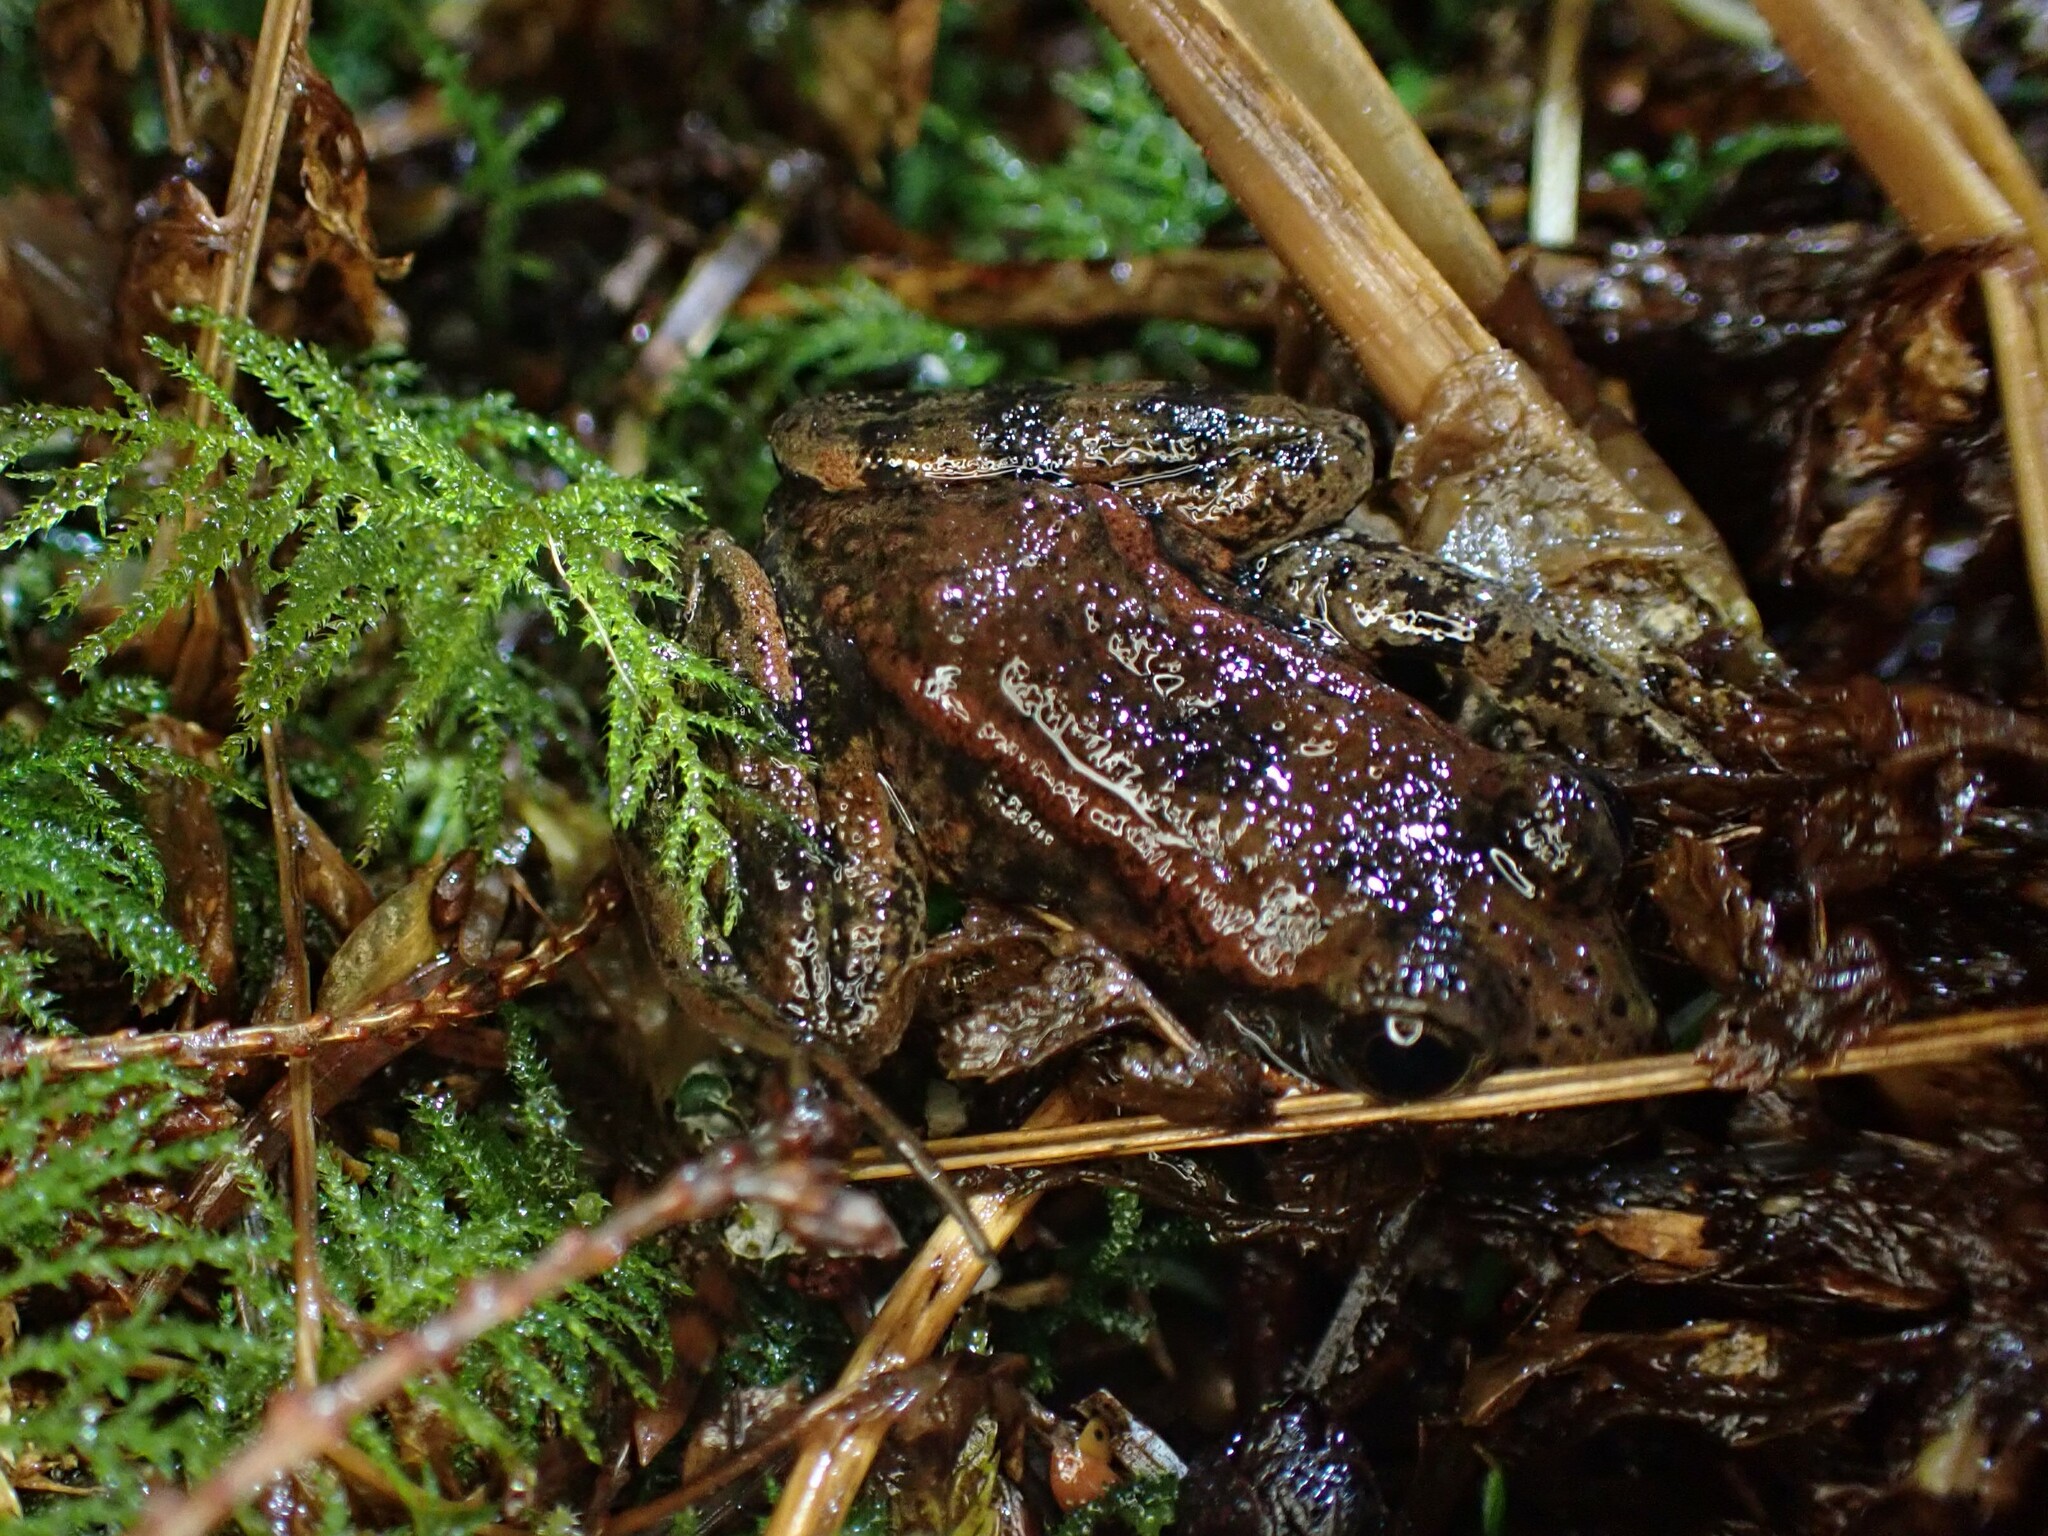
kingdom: Animalia
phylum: Chordata
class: Amphibia
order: Anura
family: Ranidae
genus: Rana
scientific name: Rana aurora
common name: Red-legged frog
